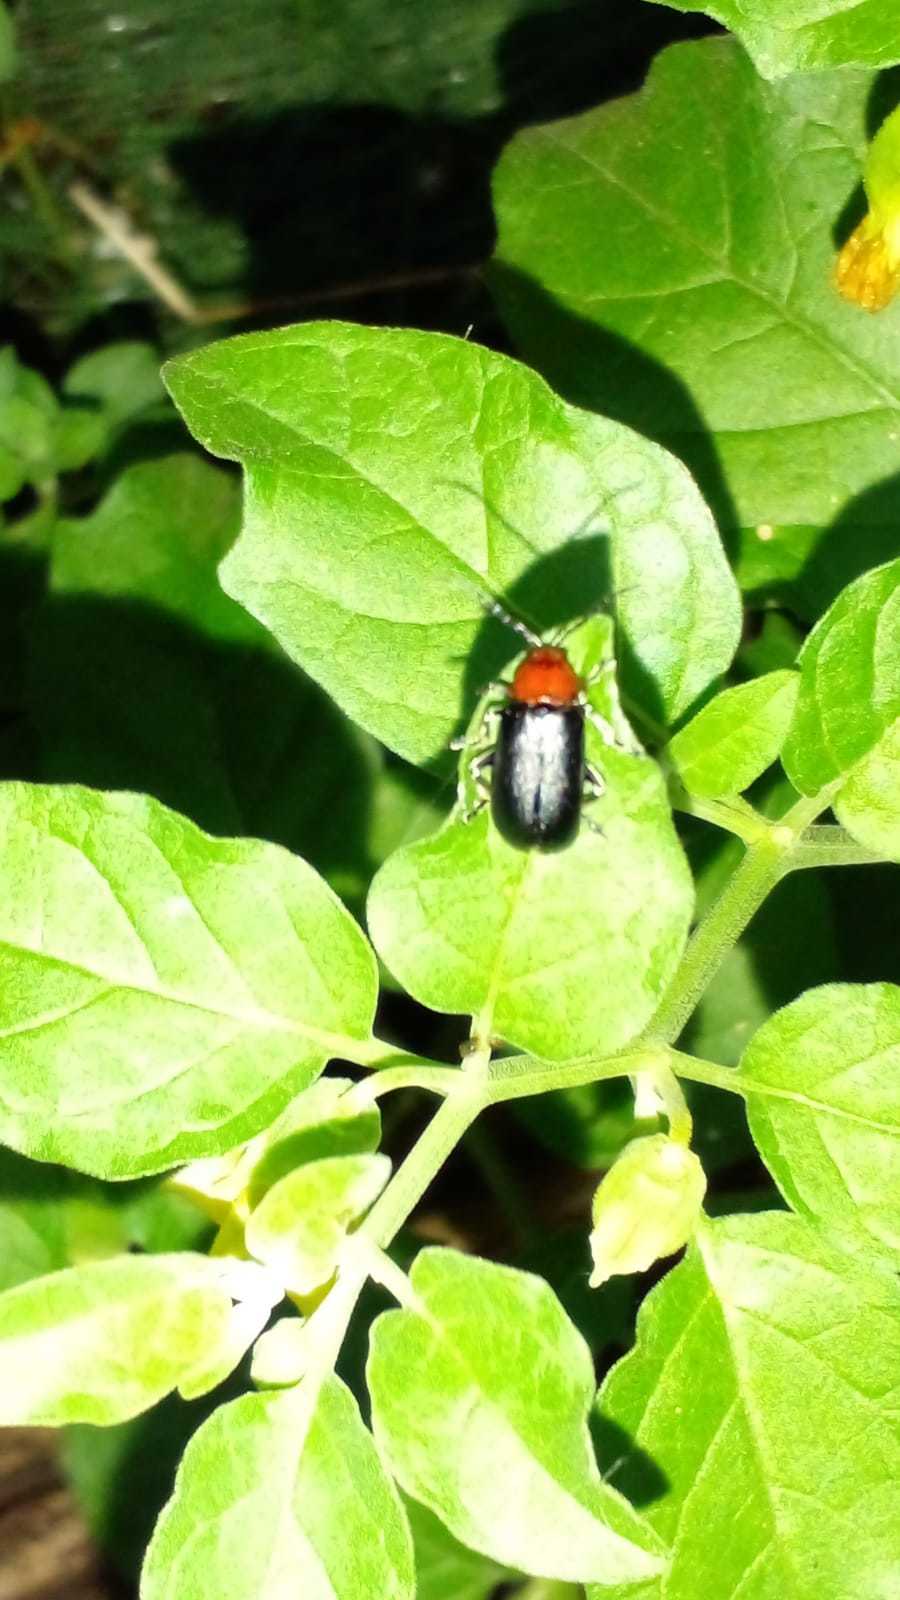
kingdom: Animalia
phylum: Arthropoda
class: Insecta
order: Coleoptera
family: Chrysomelidae
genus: Cacoscelis
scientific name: Cacoscelis
